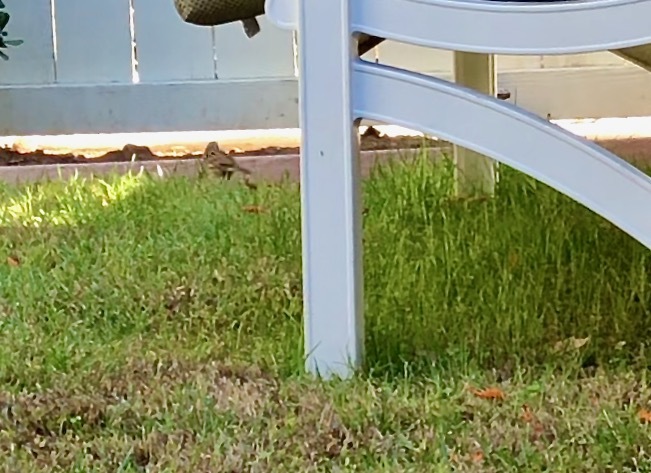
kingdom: Animalia
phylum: Chordata
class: Aves
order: Passeriformes
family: Passerellidae
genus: Melospiza
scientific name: Melospiza melodia
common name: Song sparrow
